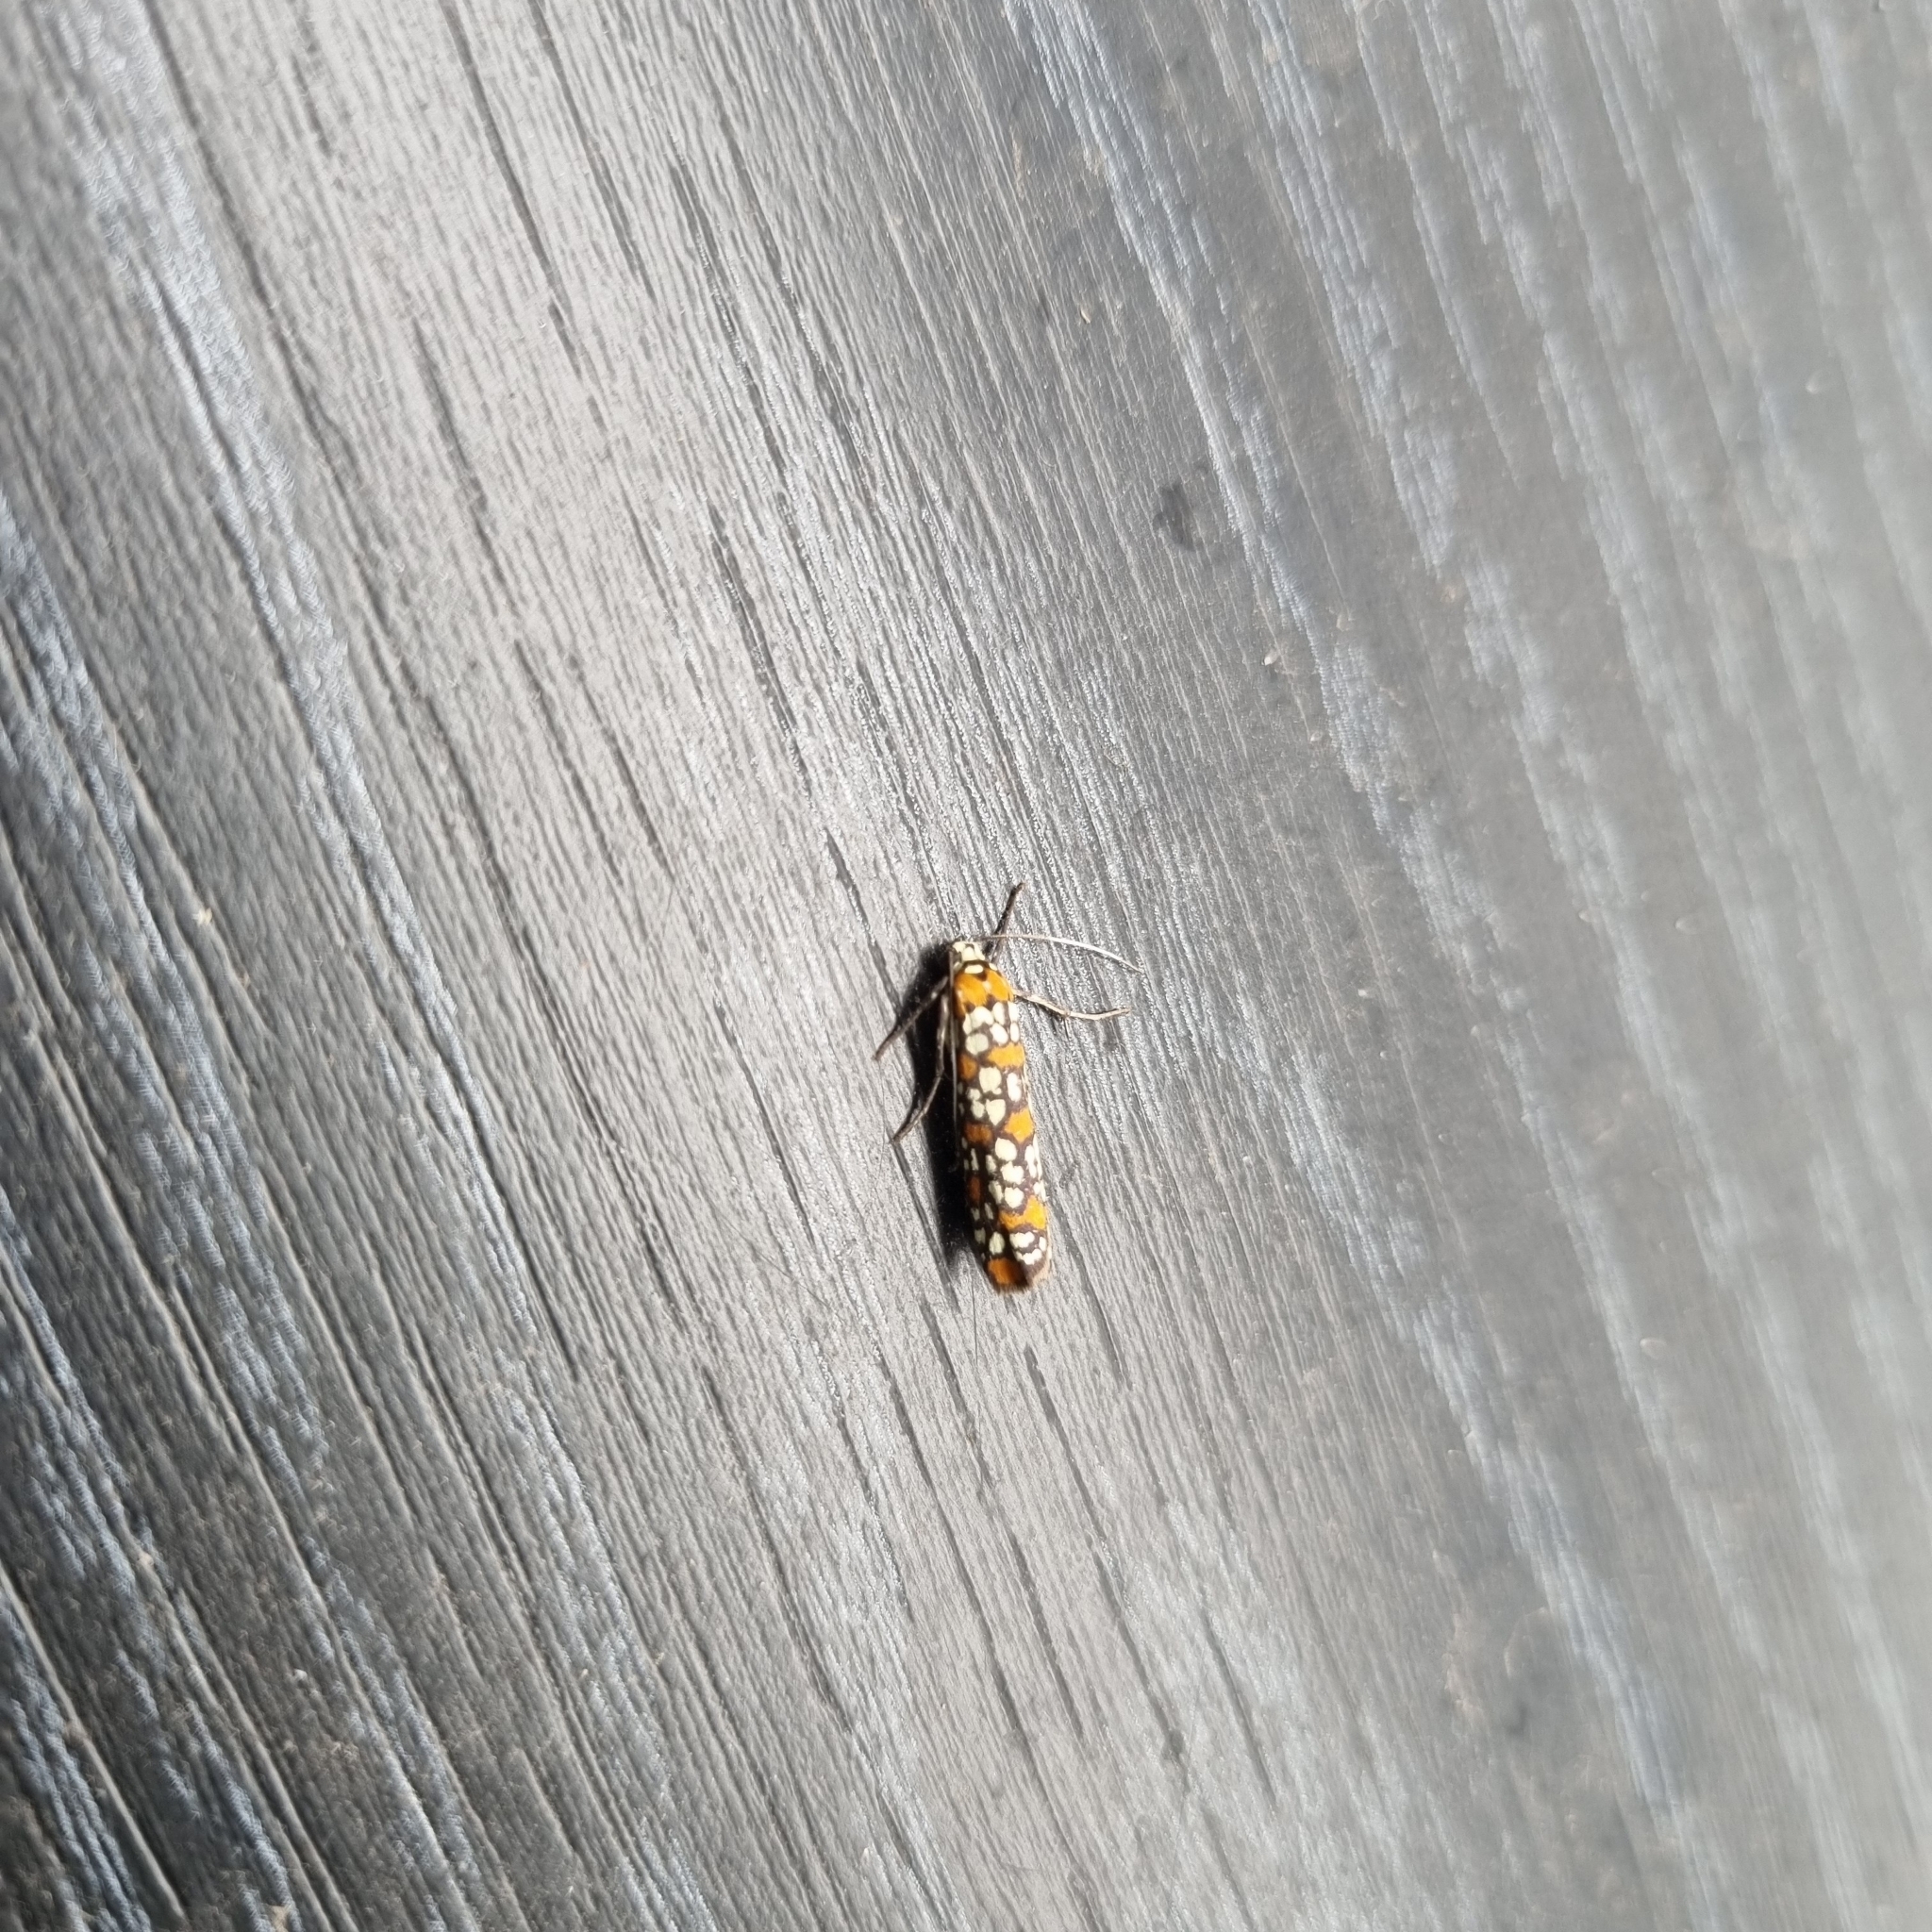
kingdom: Animalia
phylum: Arthropoda
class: Insecta
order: Lepidoptera
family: Attevidae
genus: Atteva
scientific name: Atteva punctella
